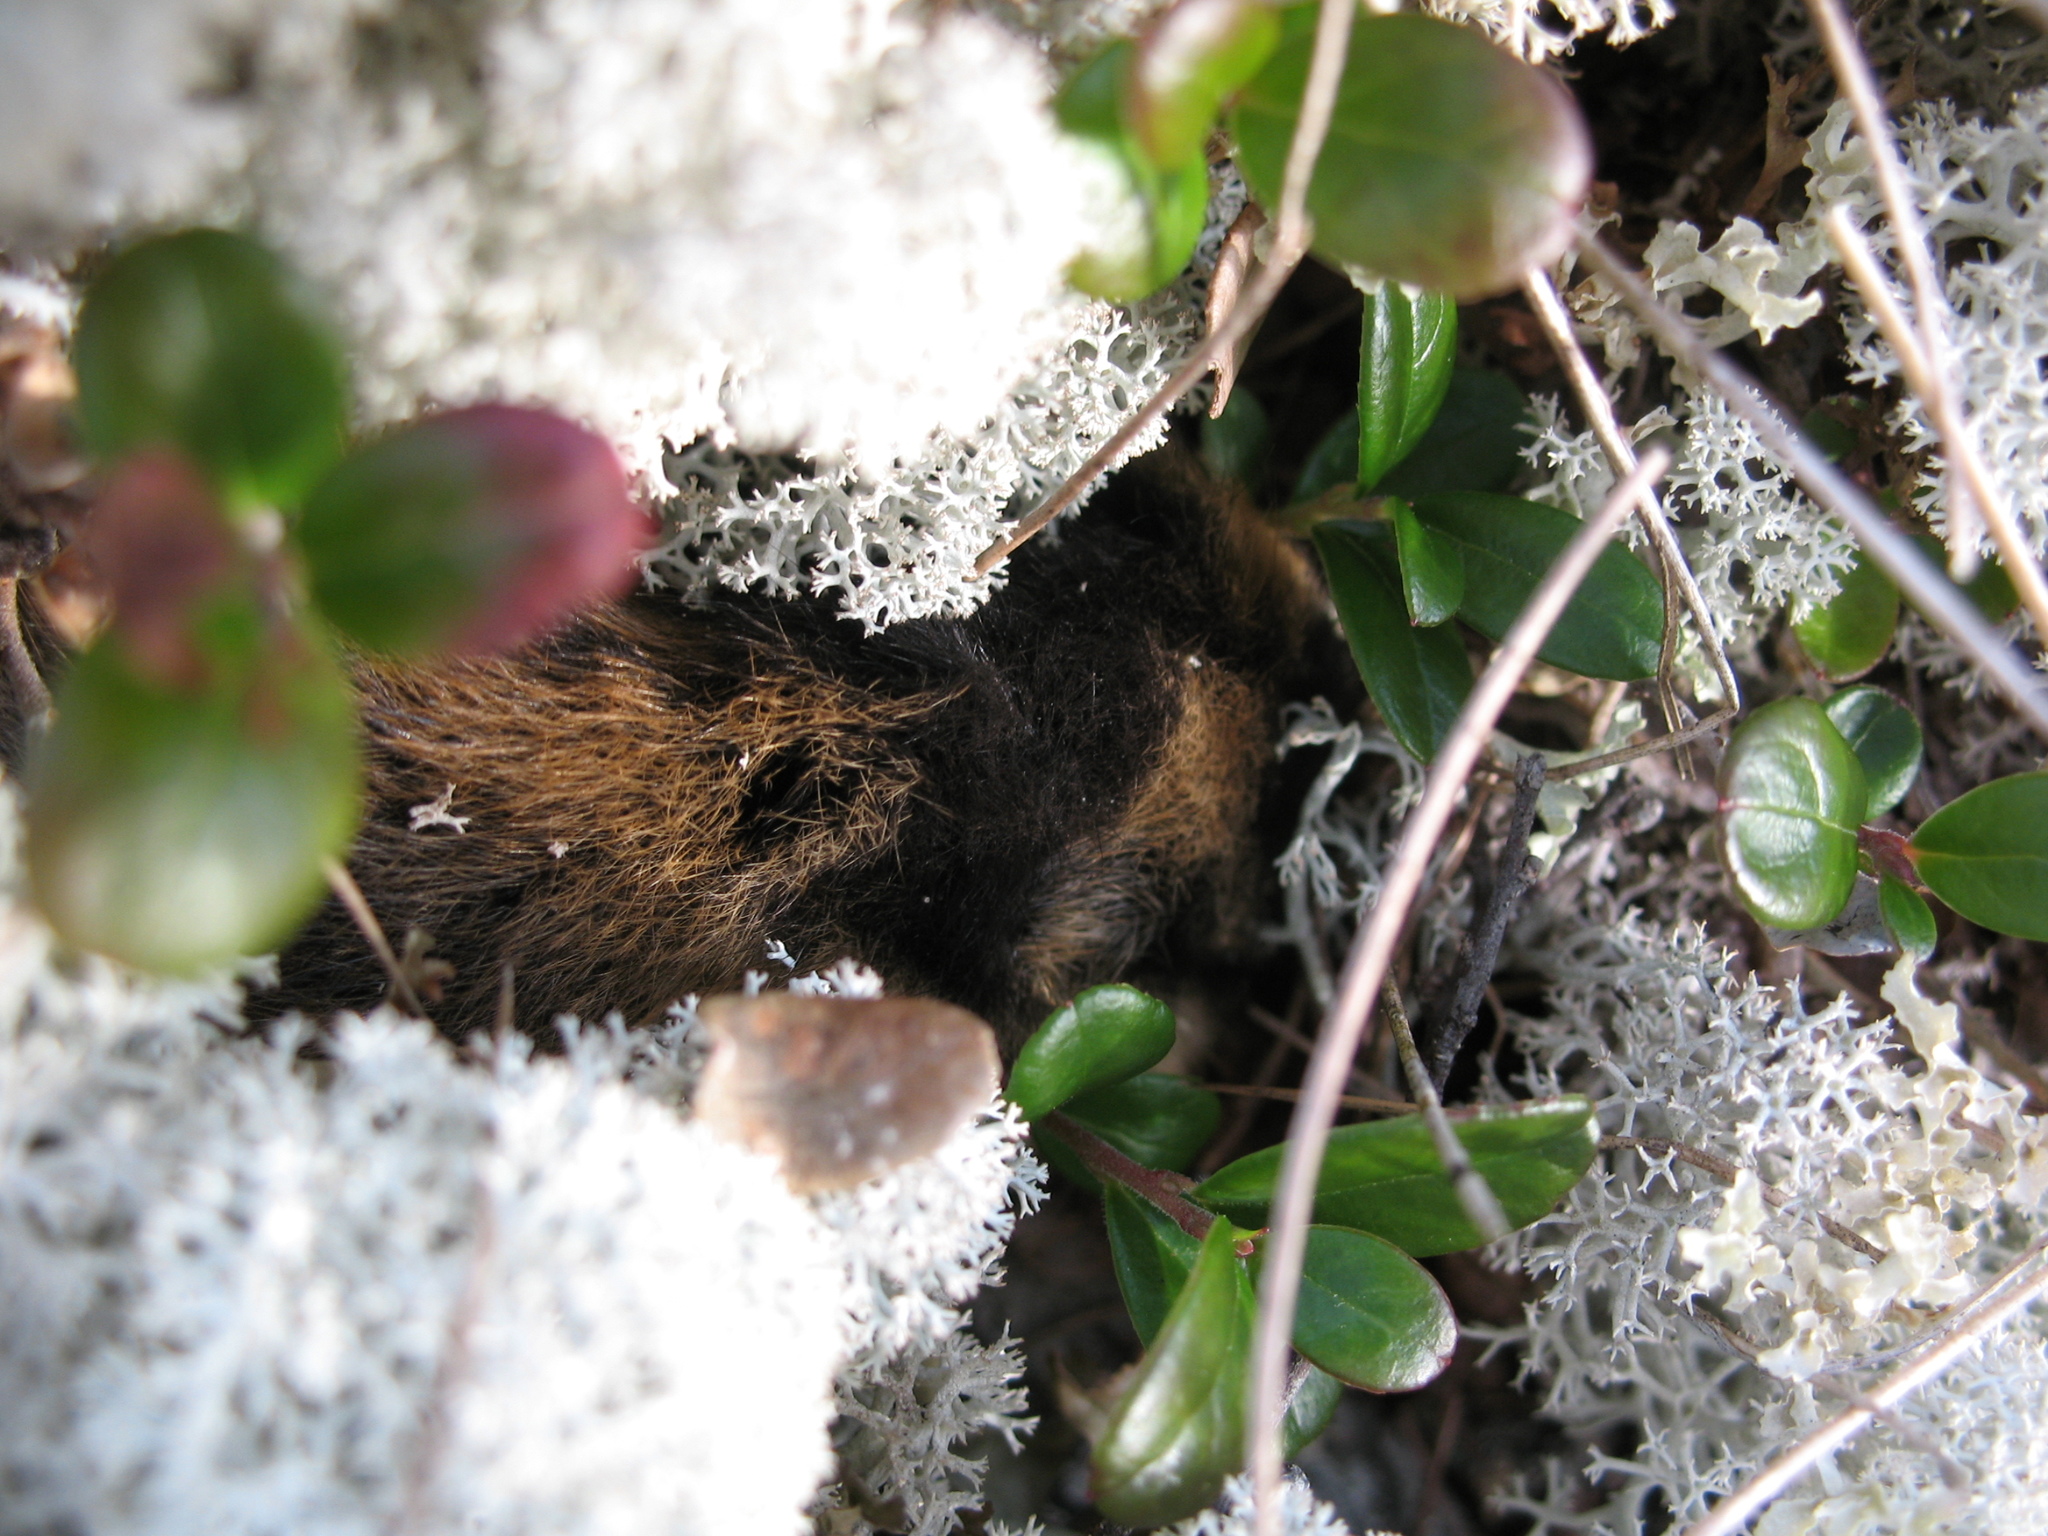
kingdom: Animalia
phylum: Chordata
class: Mammalia
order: Rodentia
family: Cricetidae
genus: Lemmus
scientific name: Lemmus lemmus
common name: Norway lemming
